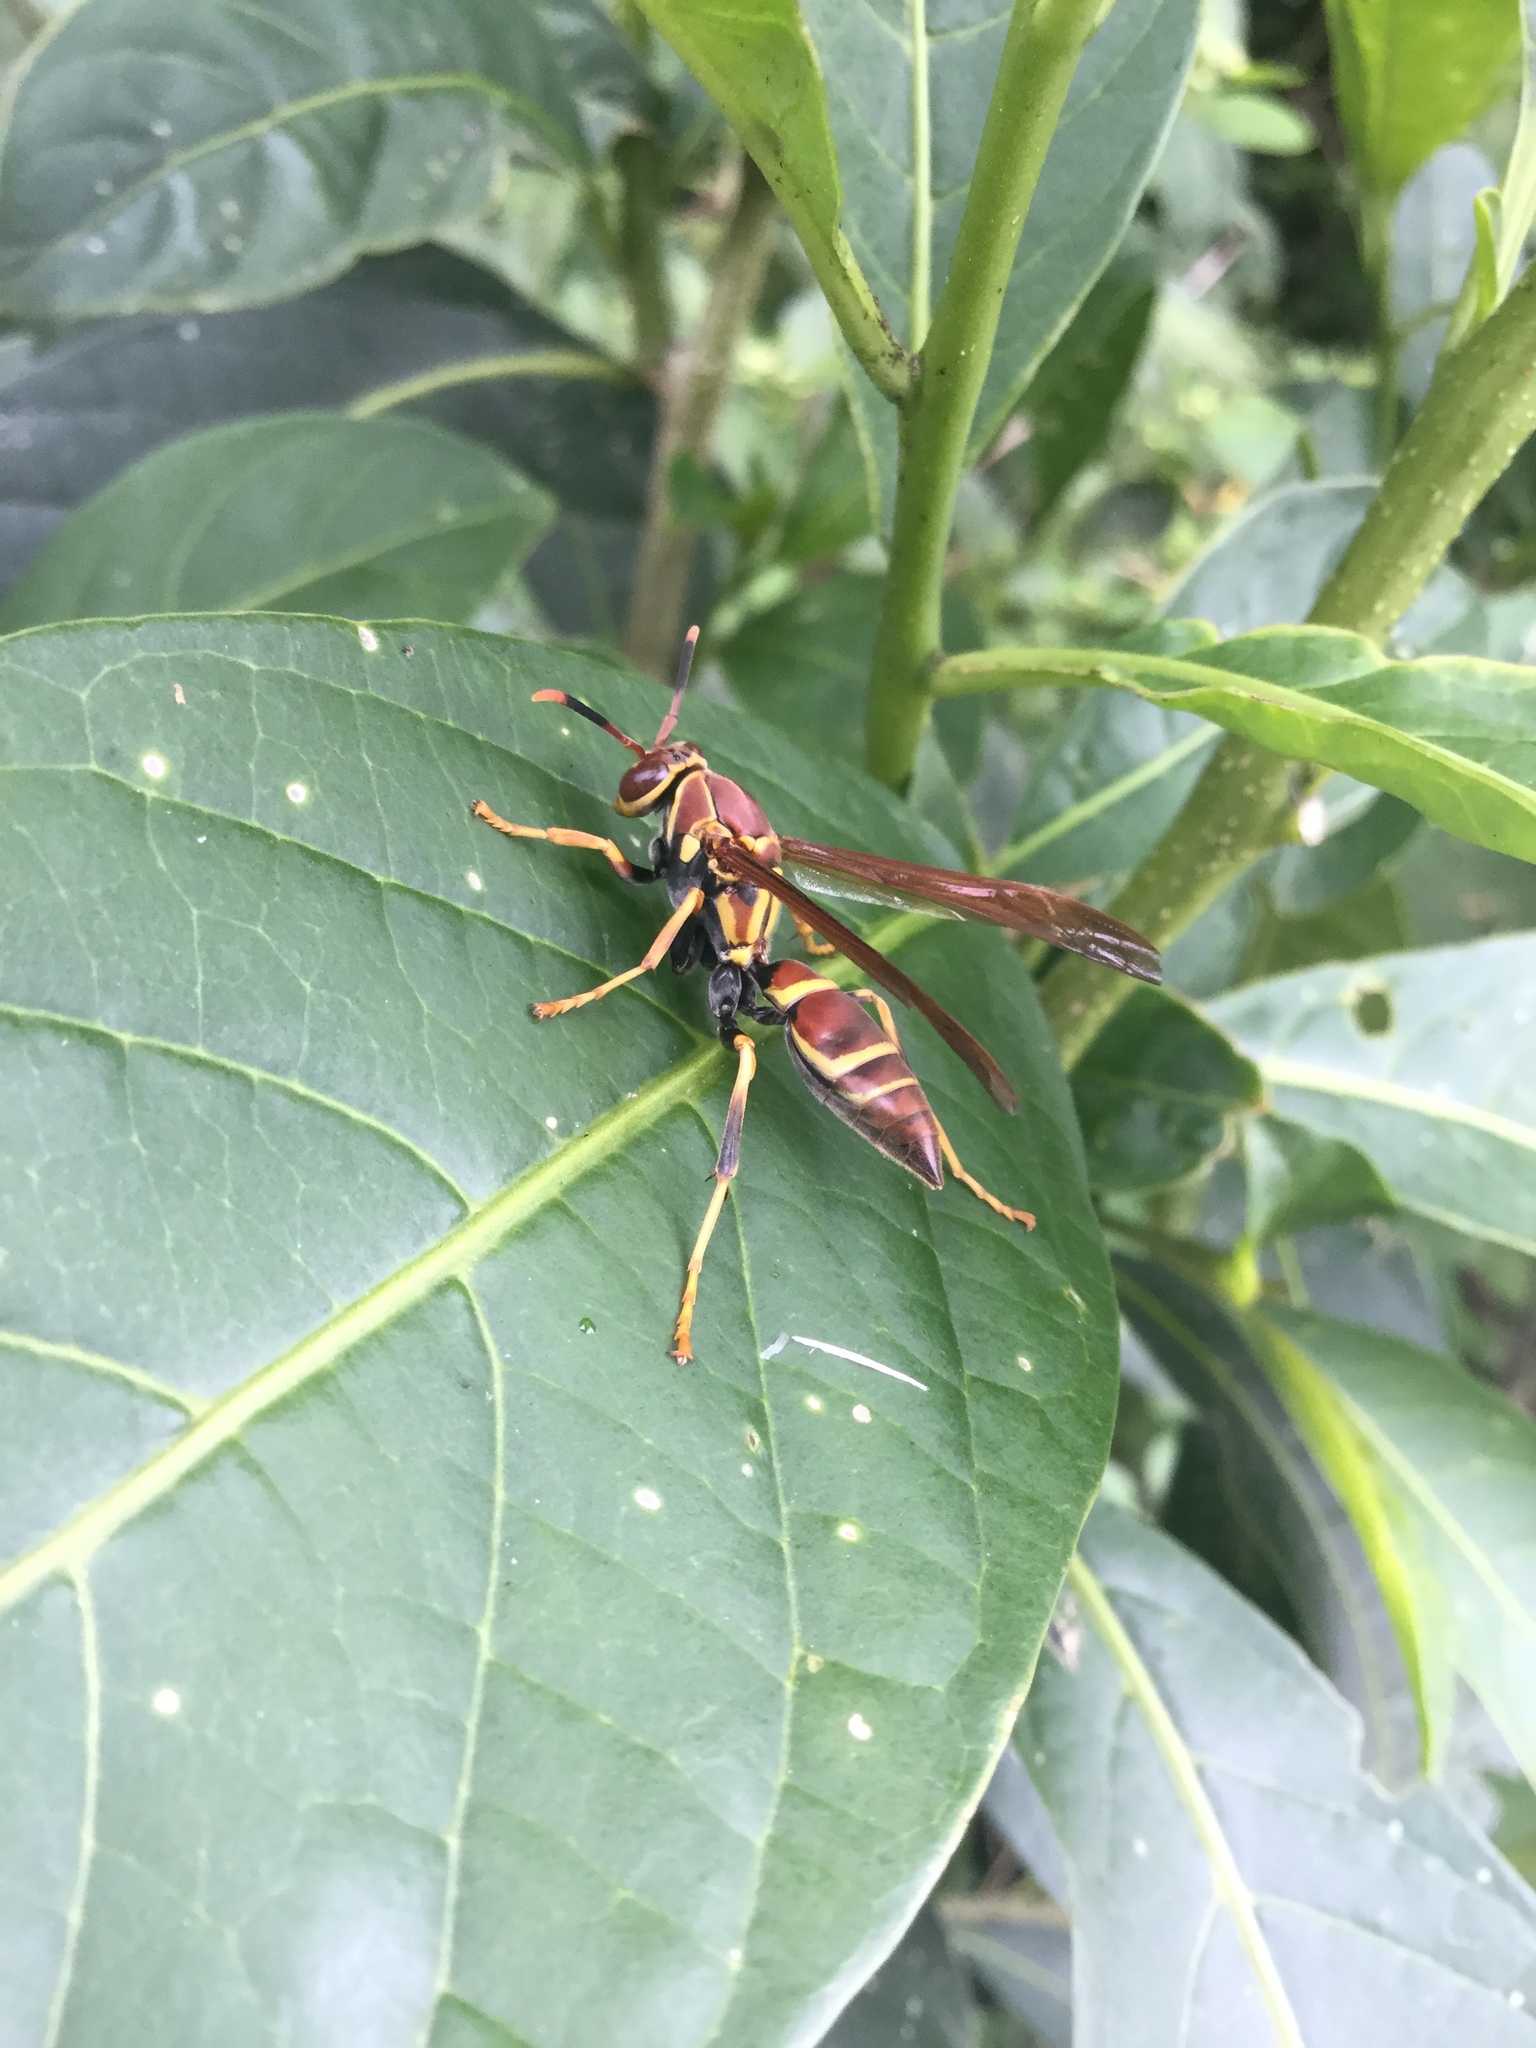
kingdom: Animalia
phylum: Arthropoda
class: Insecta
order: Hymenoptera
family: Eumenidae
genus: Polistes
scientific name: Polistes instabilis
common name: Unstable paper wasp
